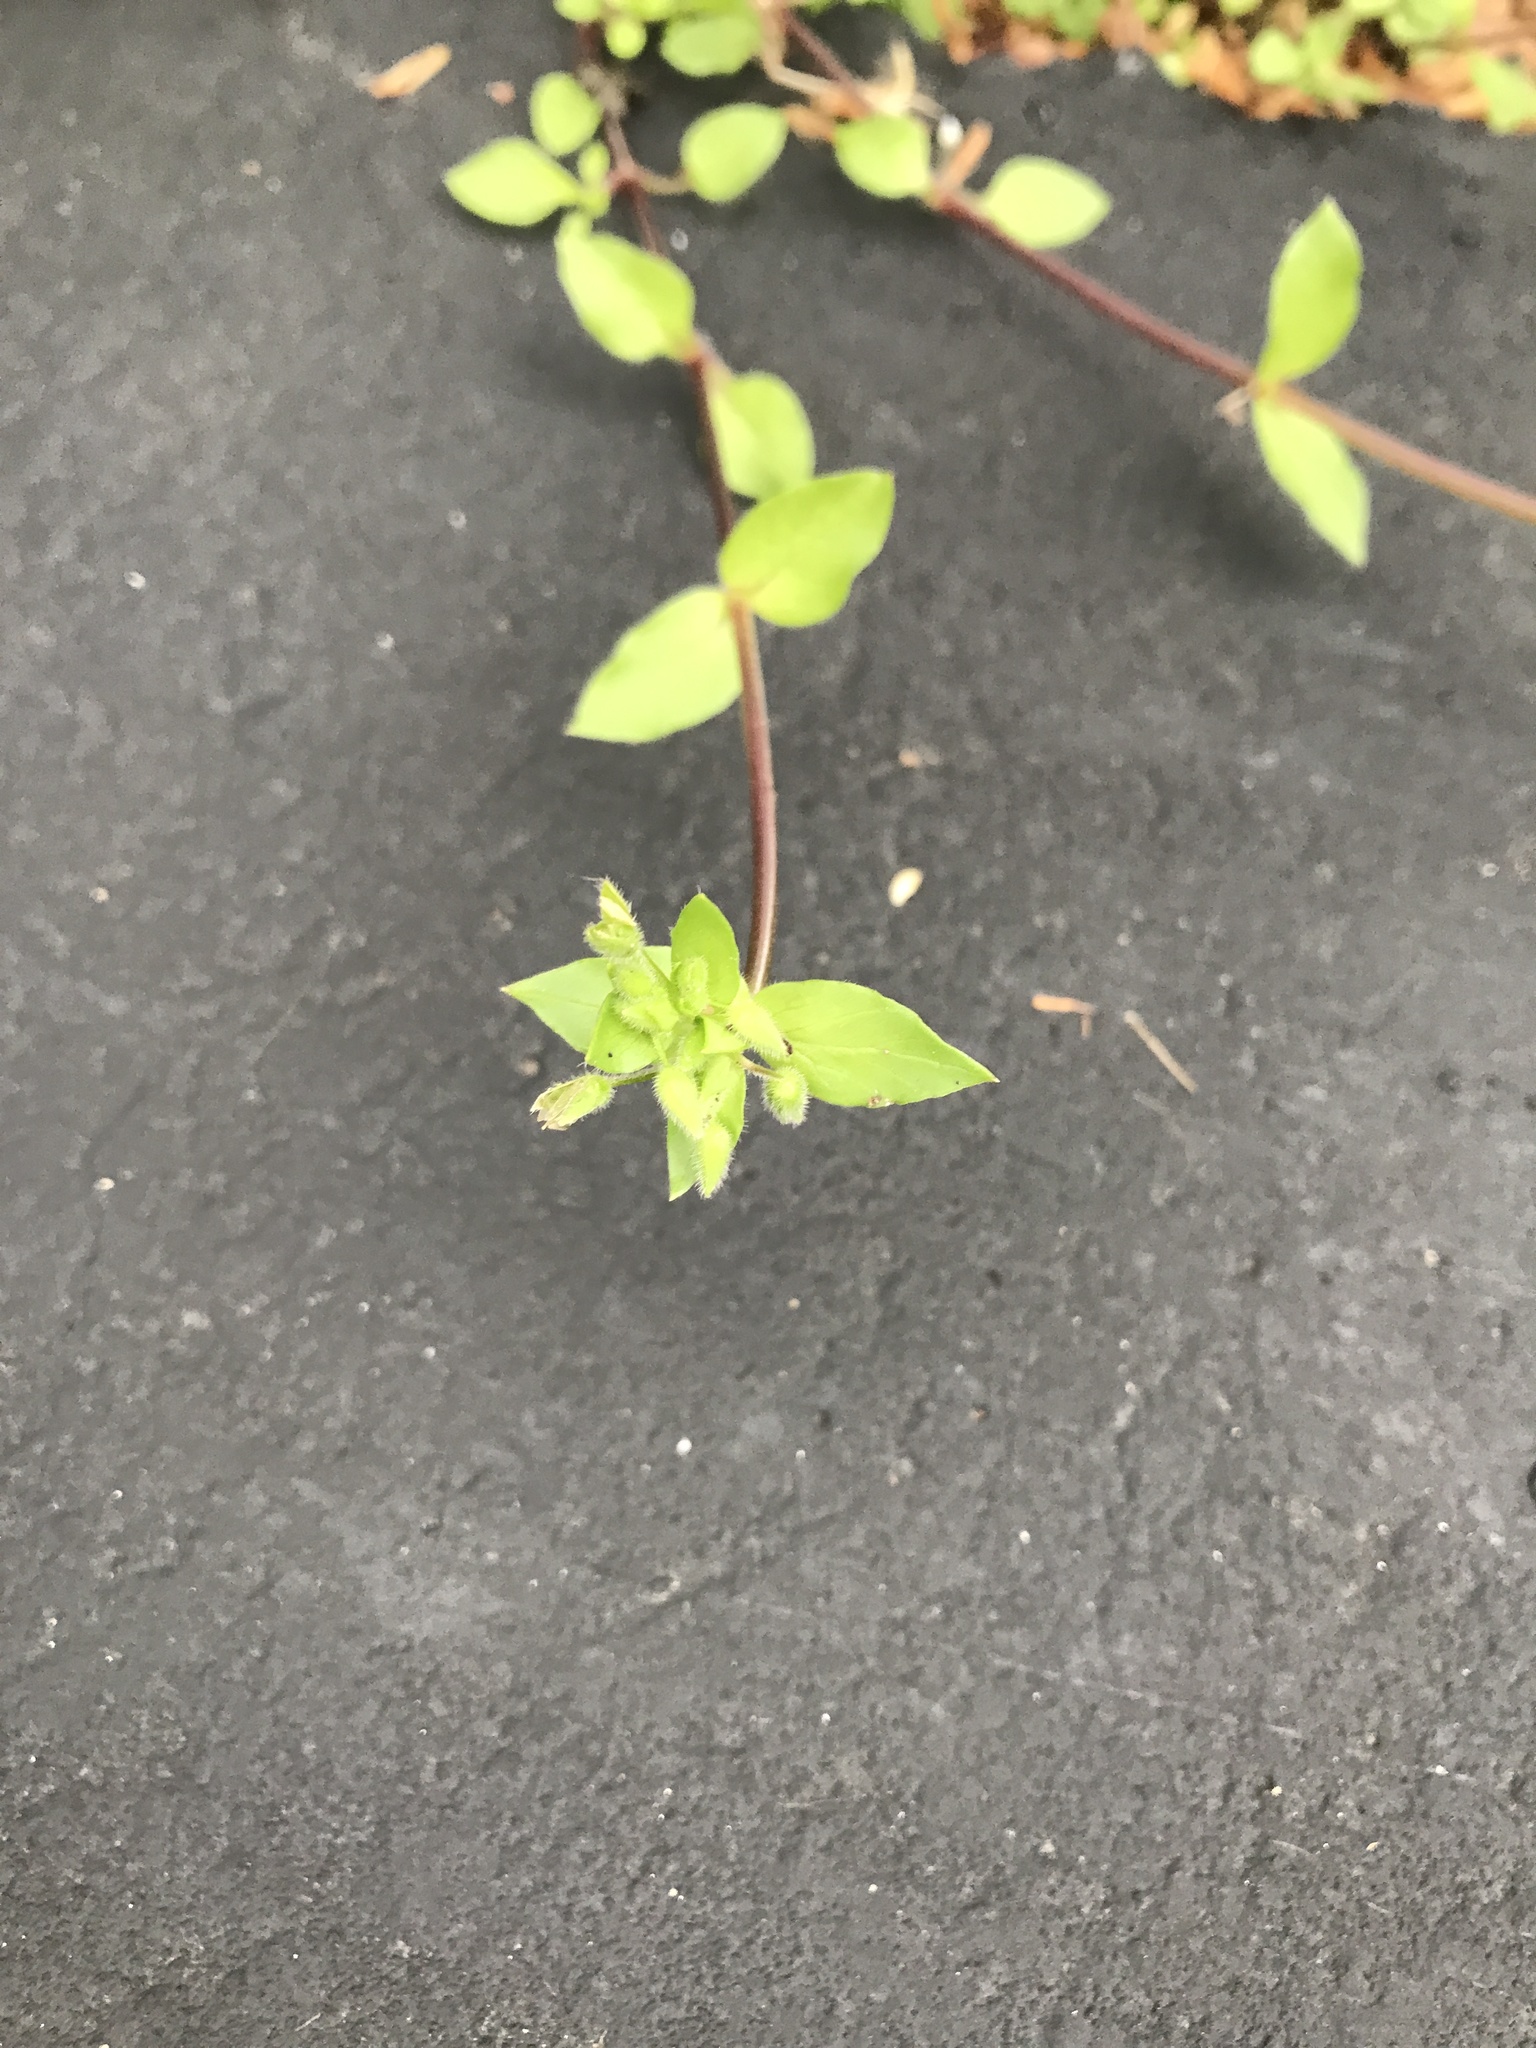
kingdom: Plantae
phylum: Tracheophyta
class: Magnoliopsida
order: Caryophyllales
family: Caryophyllaceae
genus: Stellaria
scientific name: Stellaria media
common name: Common chickweed
